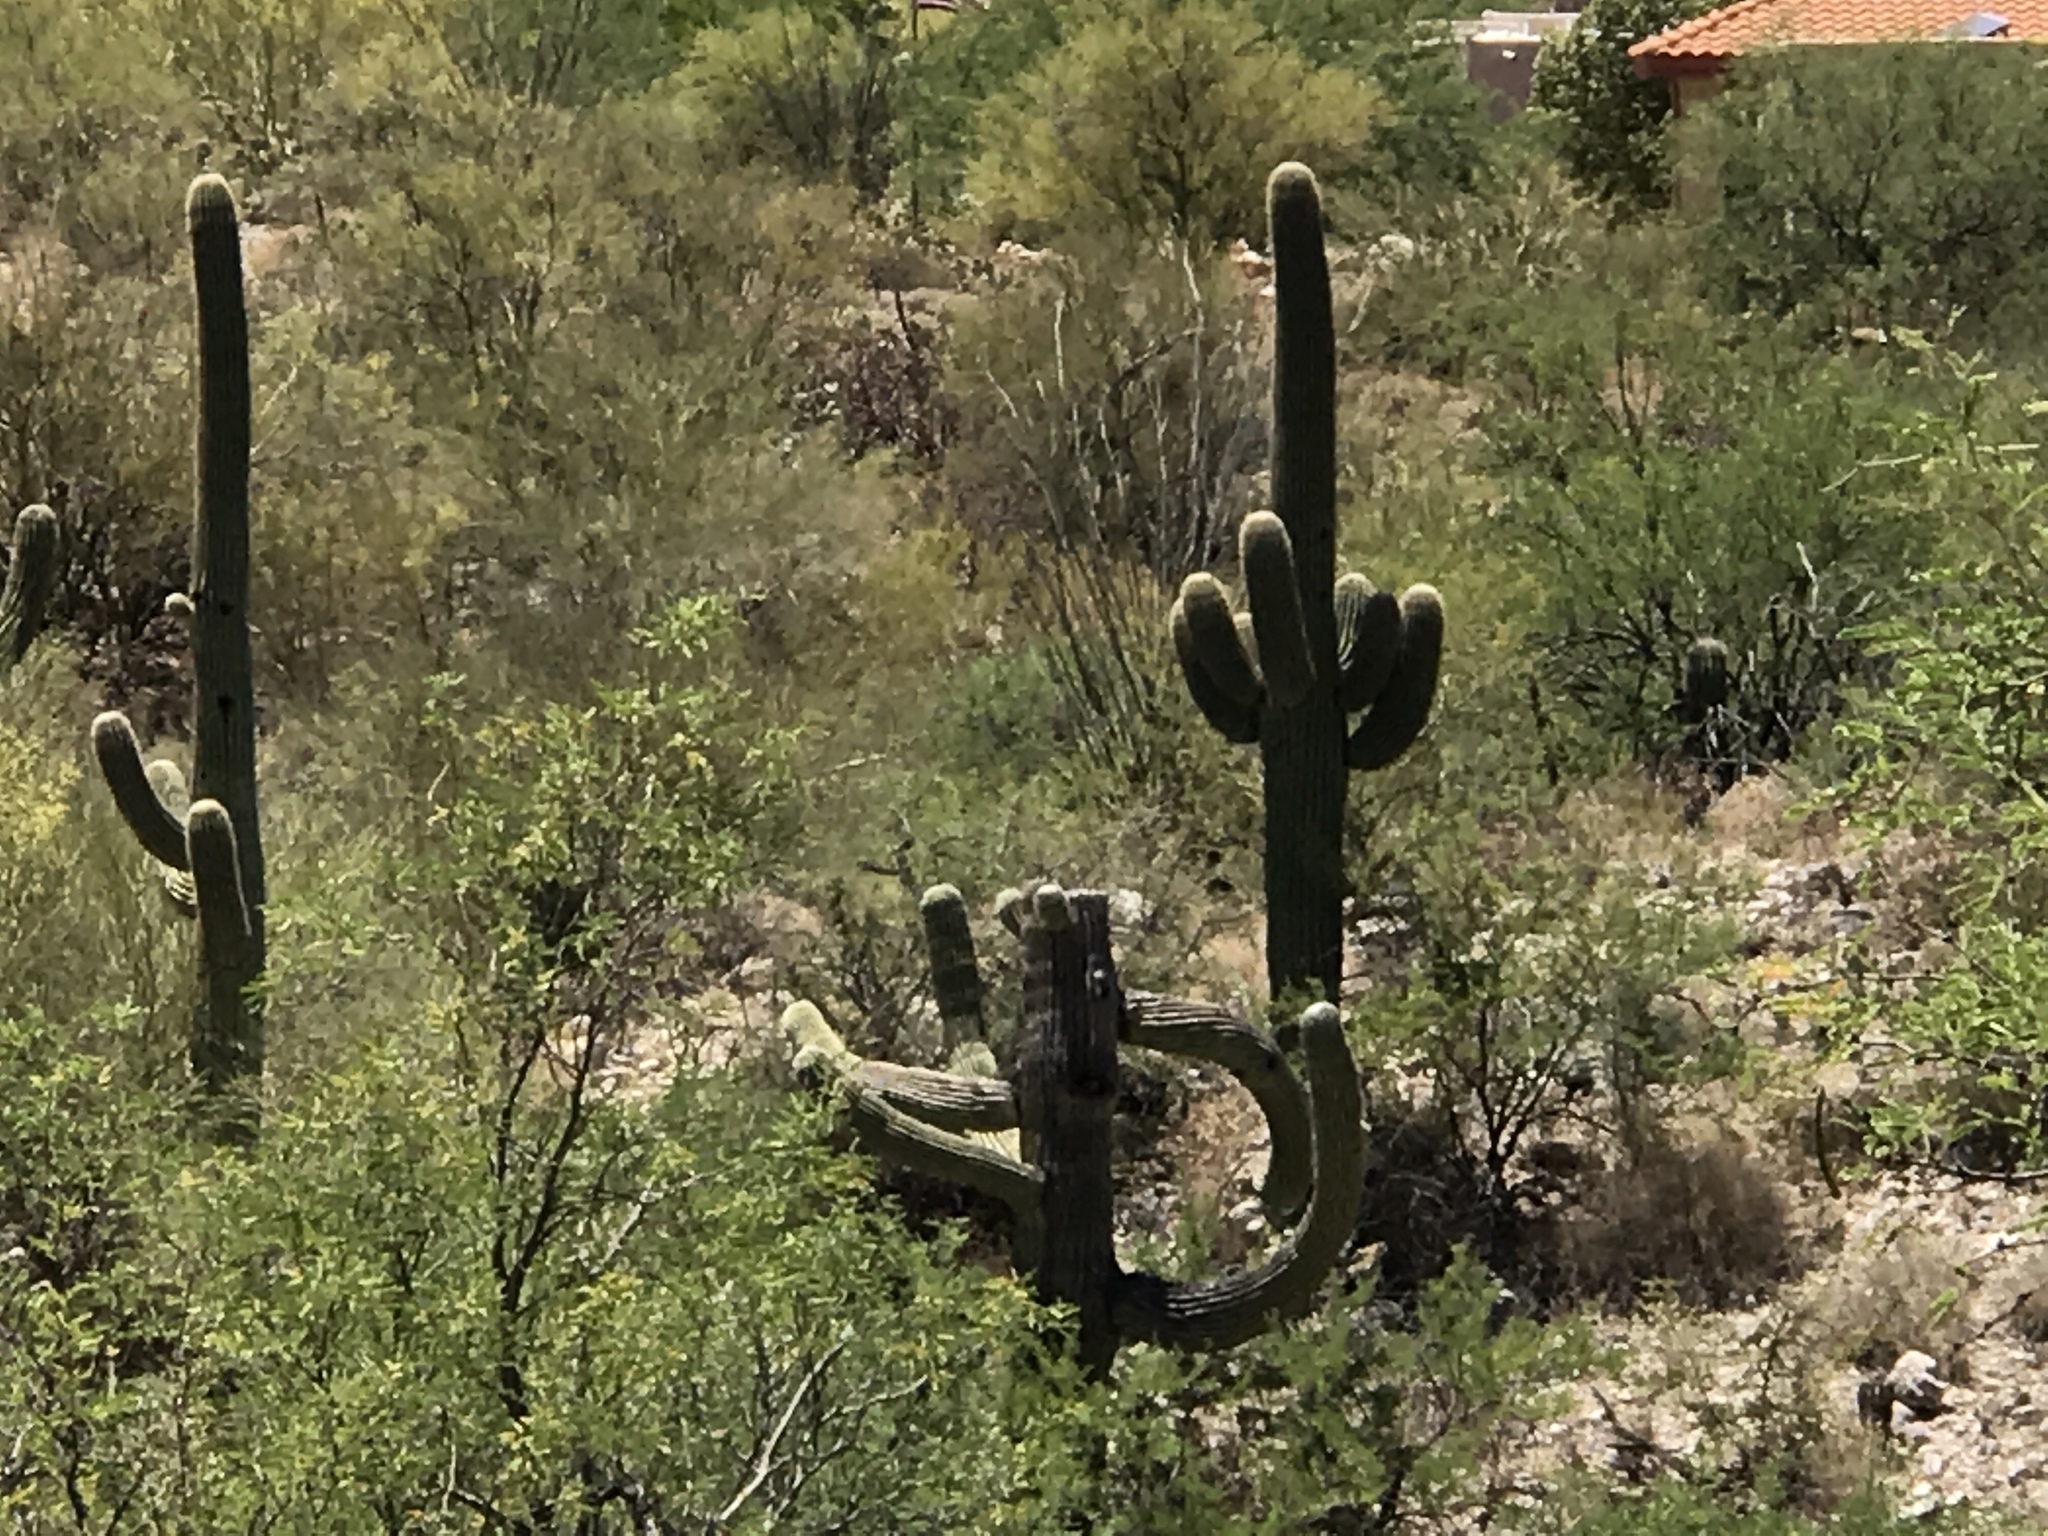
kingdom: Plantae
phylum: Tracheophyta
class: Magnoliopsida
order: Caryophyllales
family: Cactaceae
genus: Carnegiea
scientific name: Carnegiea gigantea
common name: Saguaro
